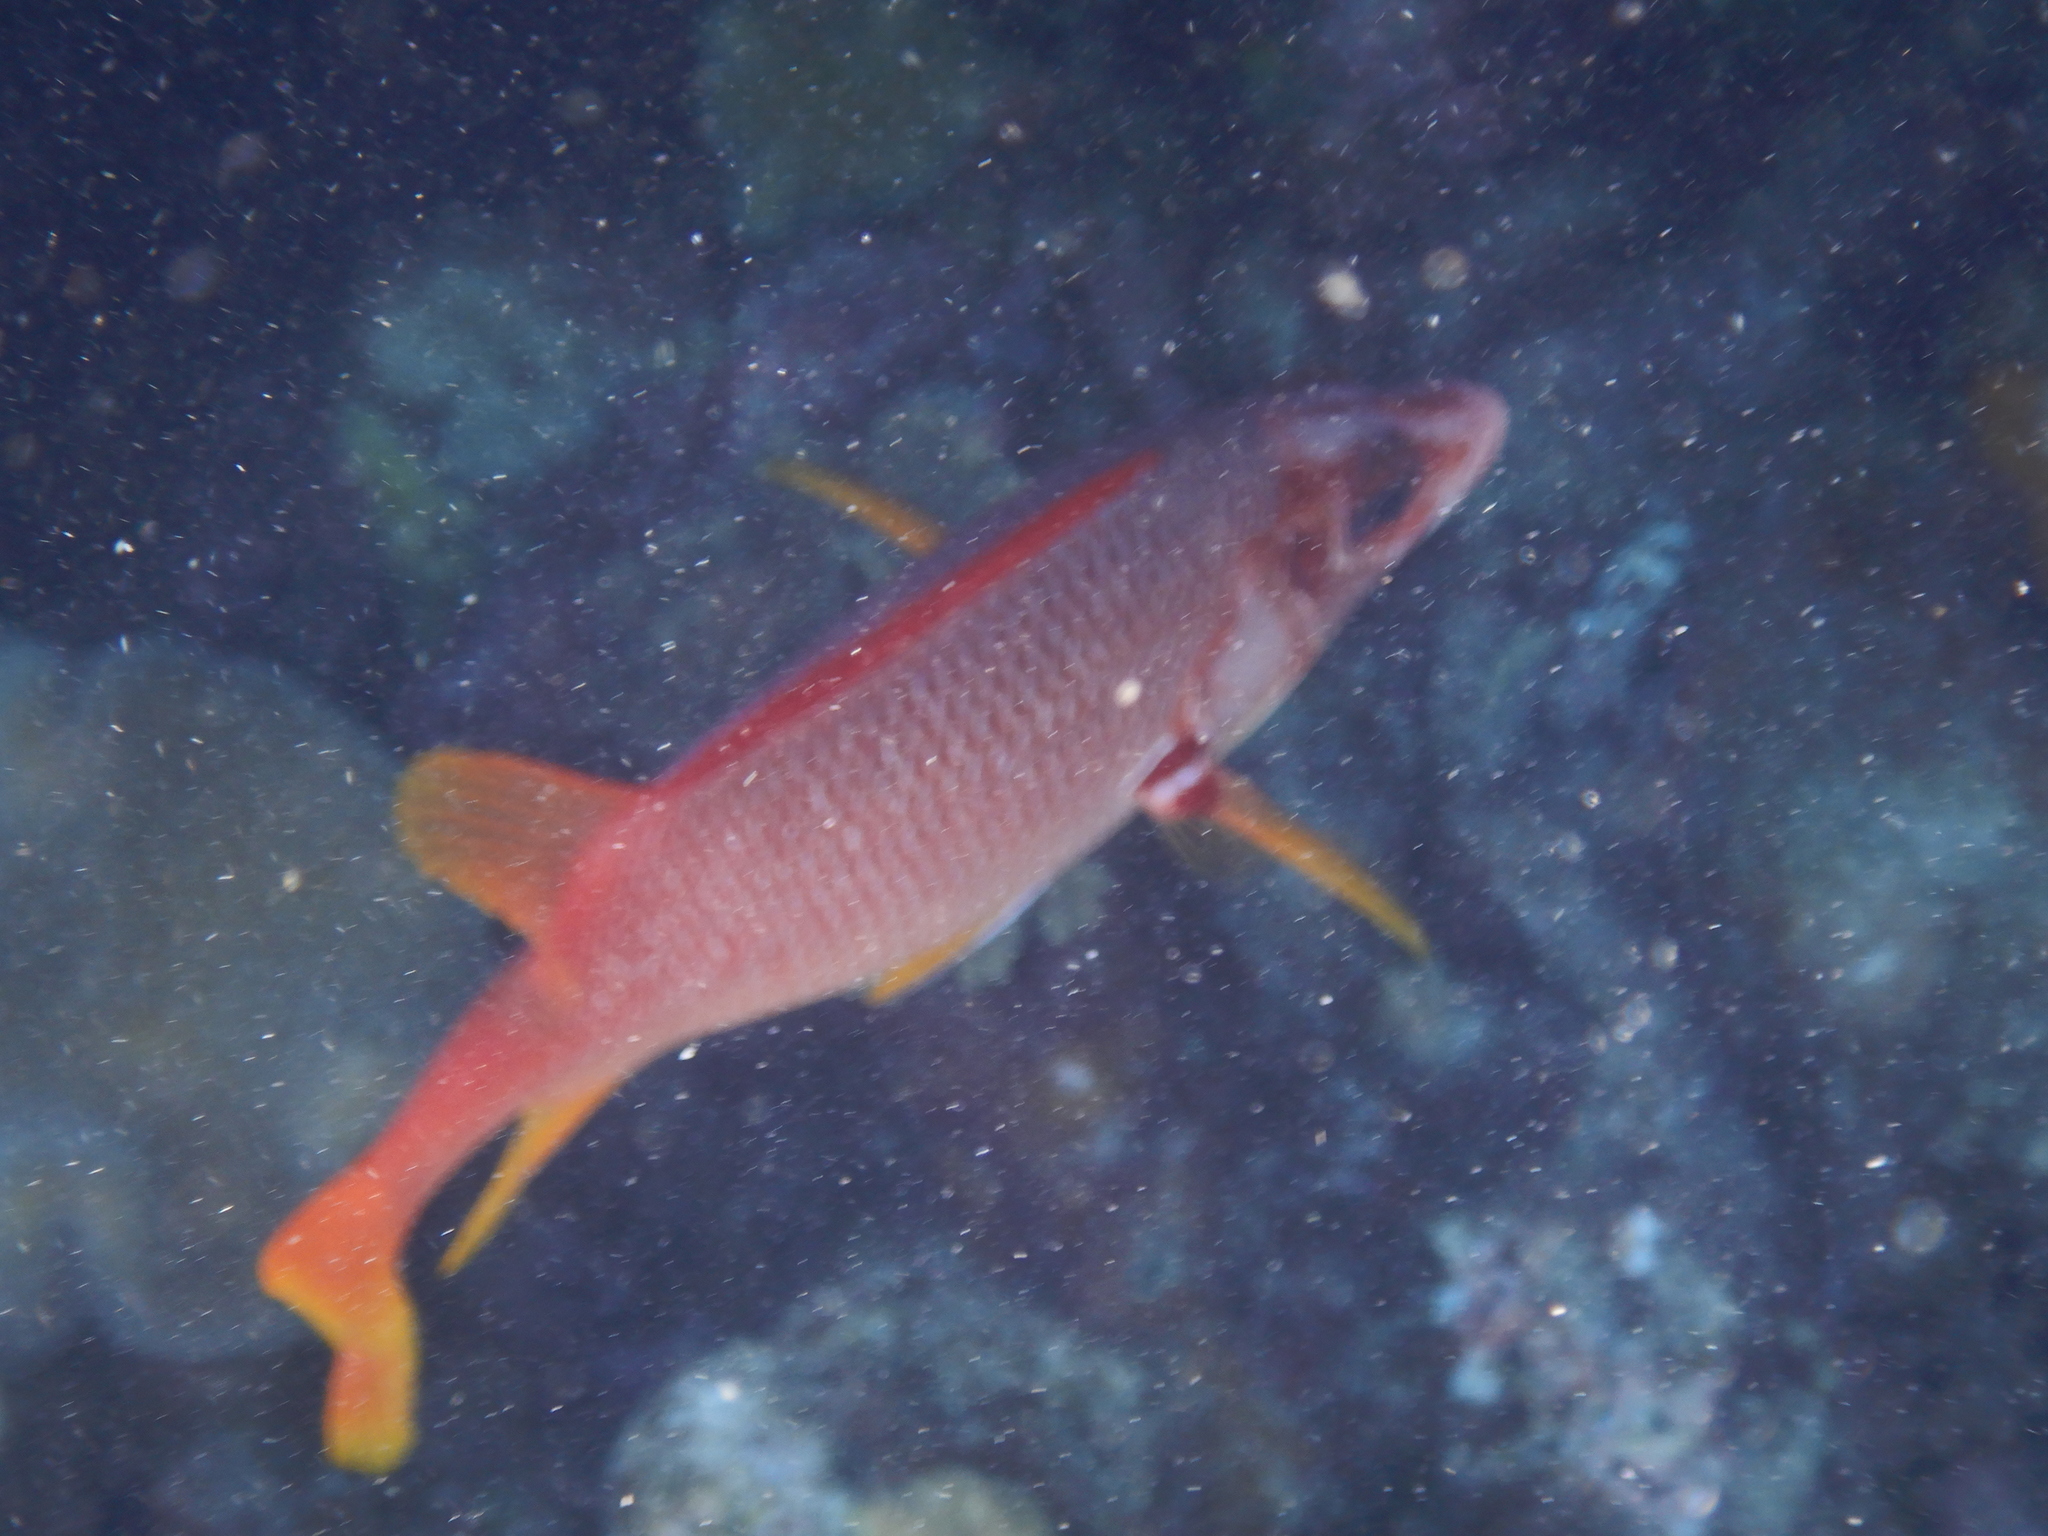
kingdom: Animalia
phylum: Chordata
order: Beryciformes
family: Holocentridae
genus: Sargocentron
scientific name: Sargocentron spiniferum
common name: Giant squirrelfish
